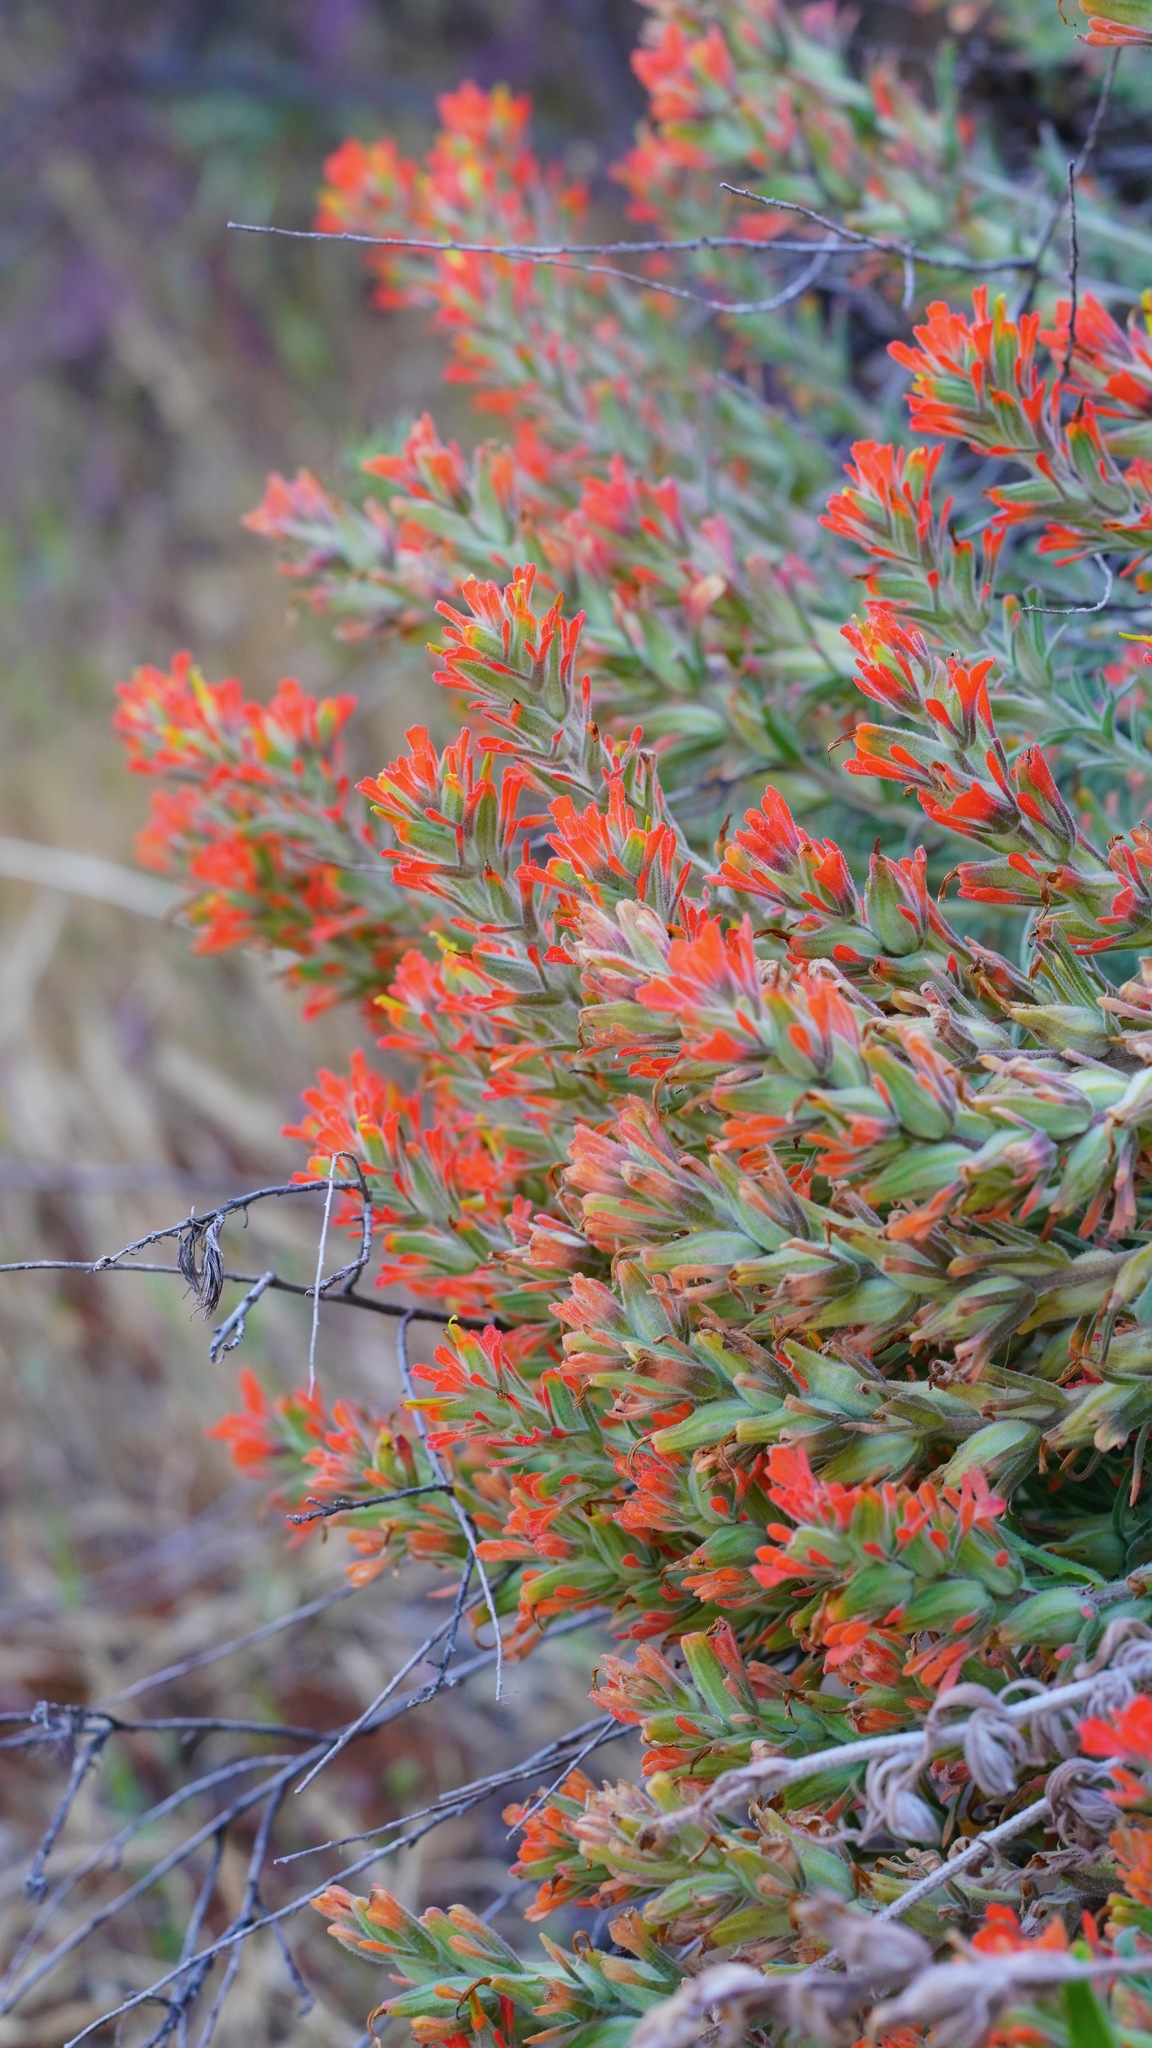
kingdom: Plantae
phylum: Tracheophyta
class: Magnoliopsida
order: Lamiales
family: Orobanchaceae
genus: Castilleja
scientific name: Castilleja foliolosa
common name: Woolly indian paintbrush
